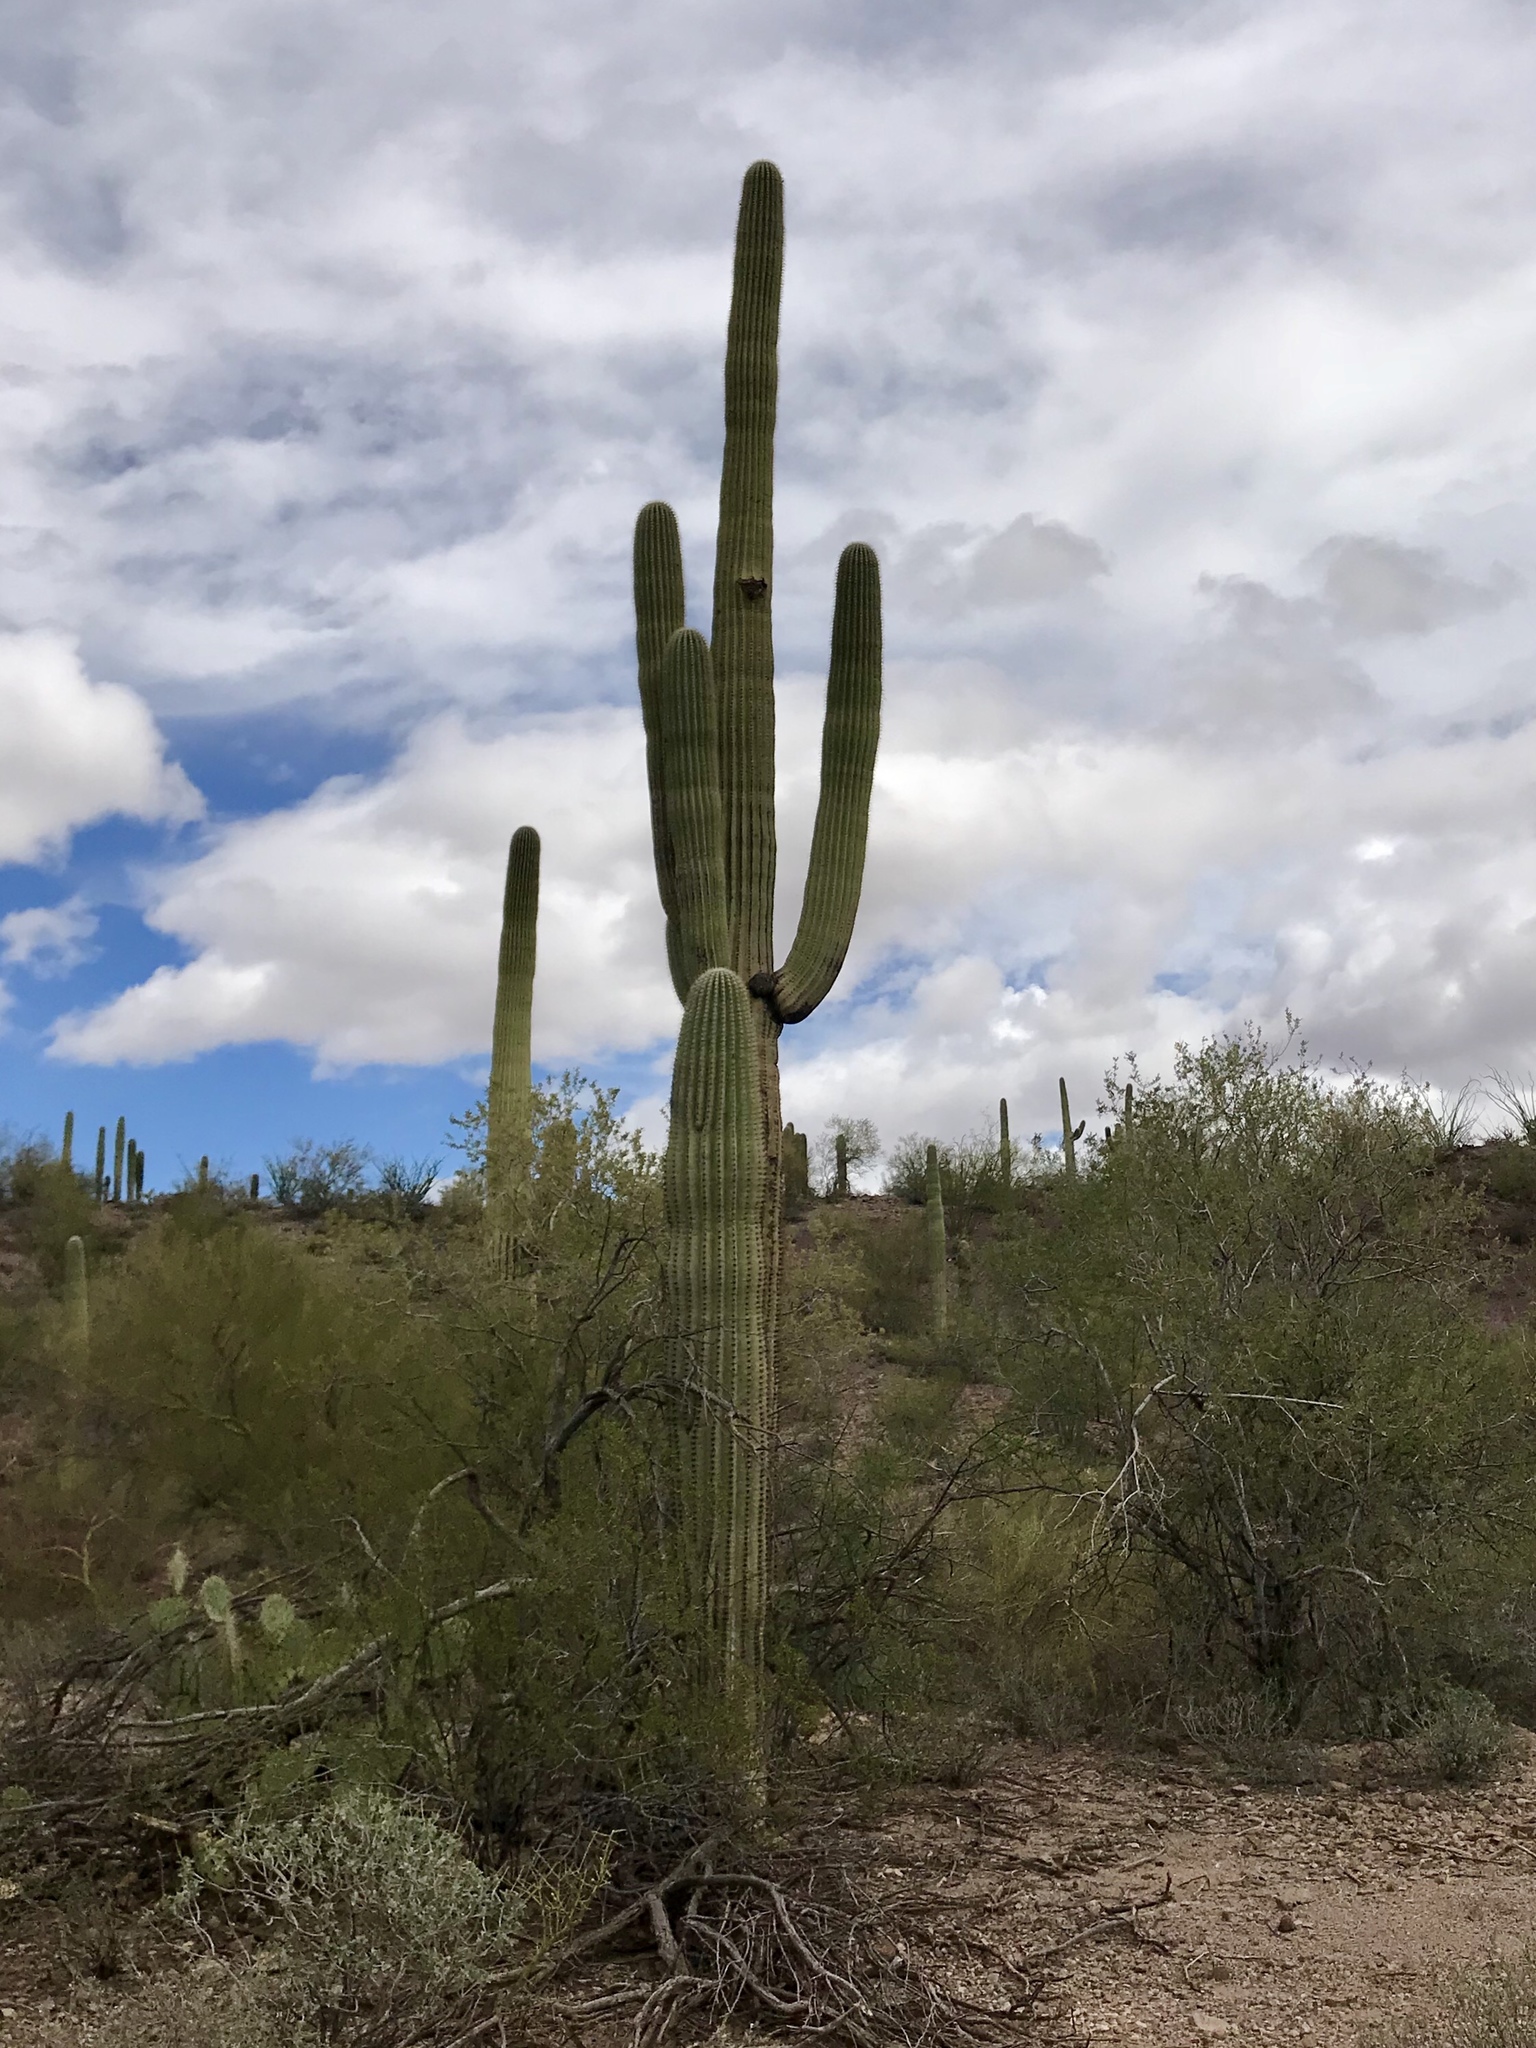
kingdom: Plantae
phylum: Tracheophyta
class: Magnoliopsida
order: Caryophyllales
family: Cactaceae
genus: Carnegiea
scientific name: Carnegiea gigantea
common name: Saguaro
